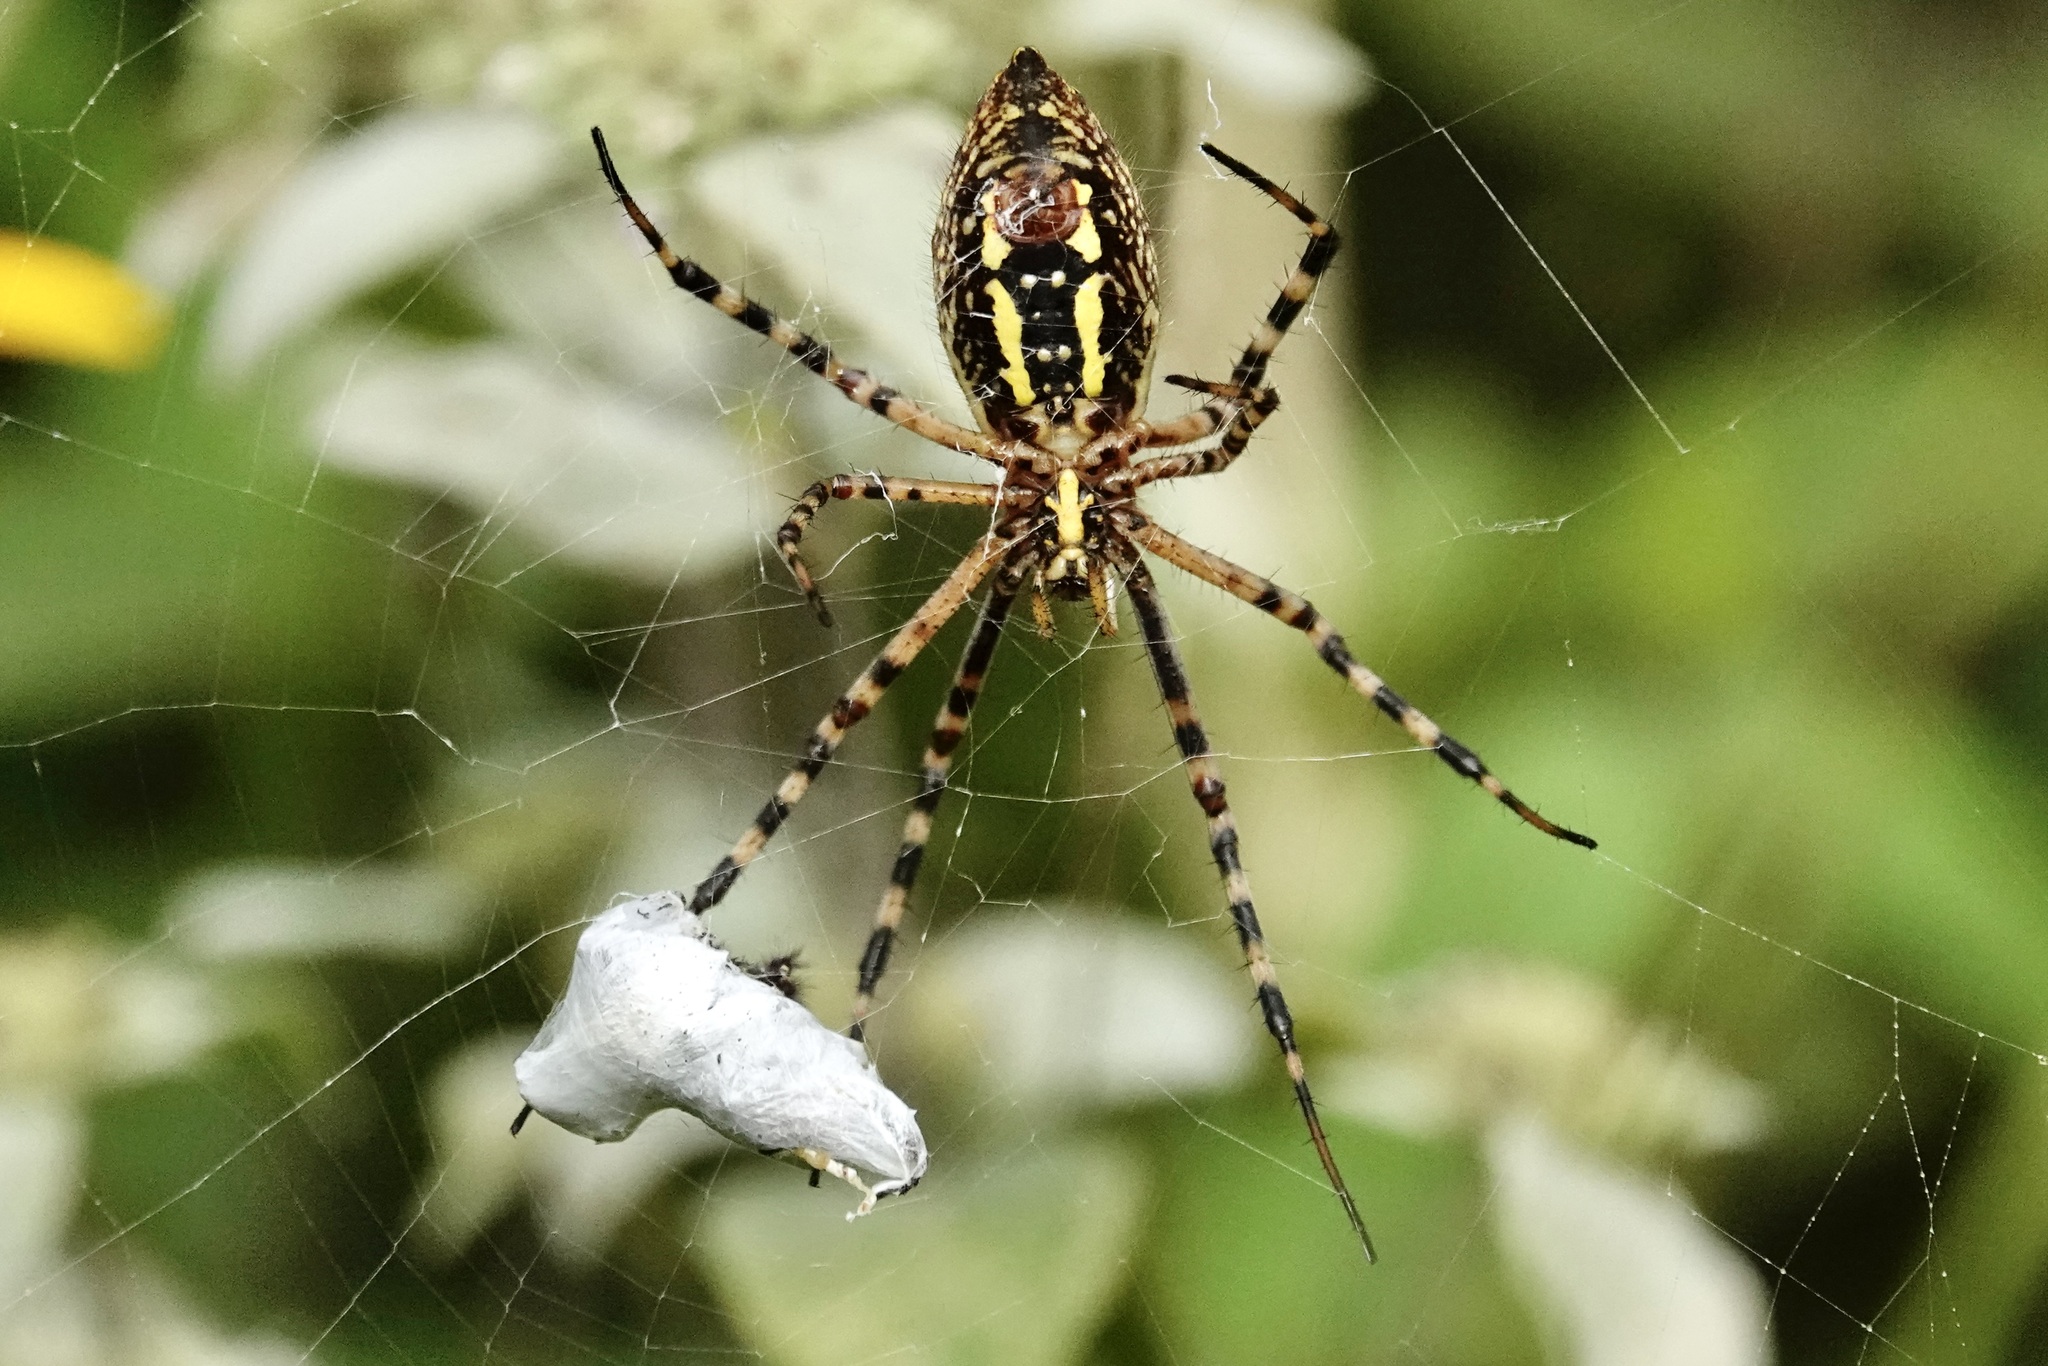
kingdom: Animalia
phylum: Arthropoda
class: Arachnida
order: Araneae
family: Araneidae
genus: Argiope
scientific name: Argiope trifasciata
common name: Banded garden spider
